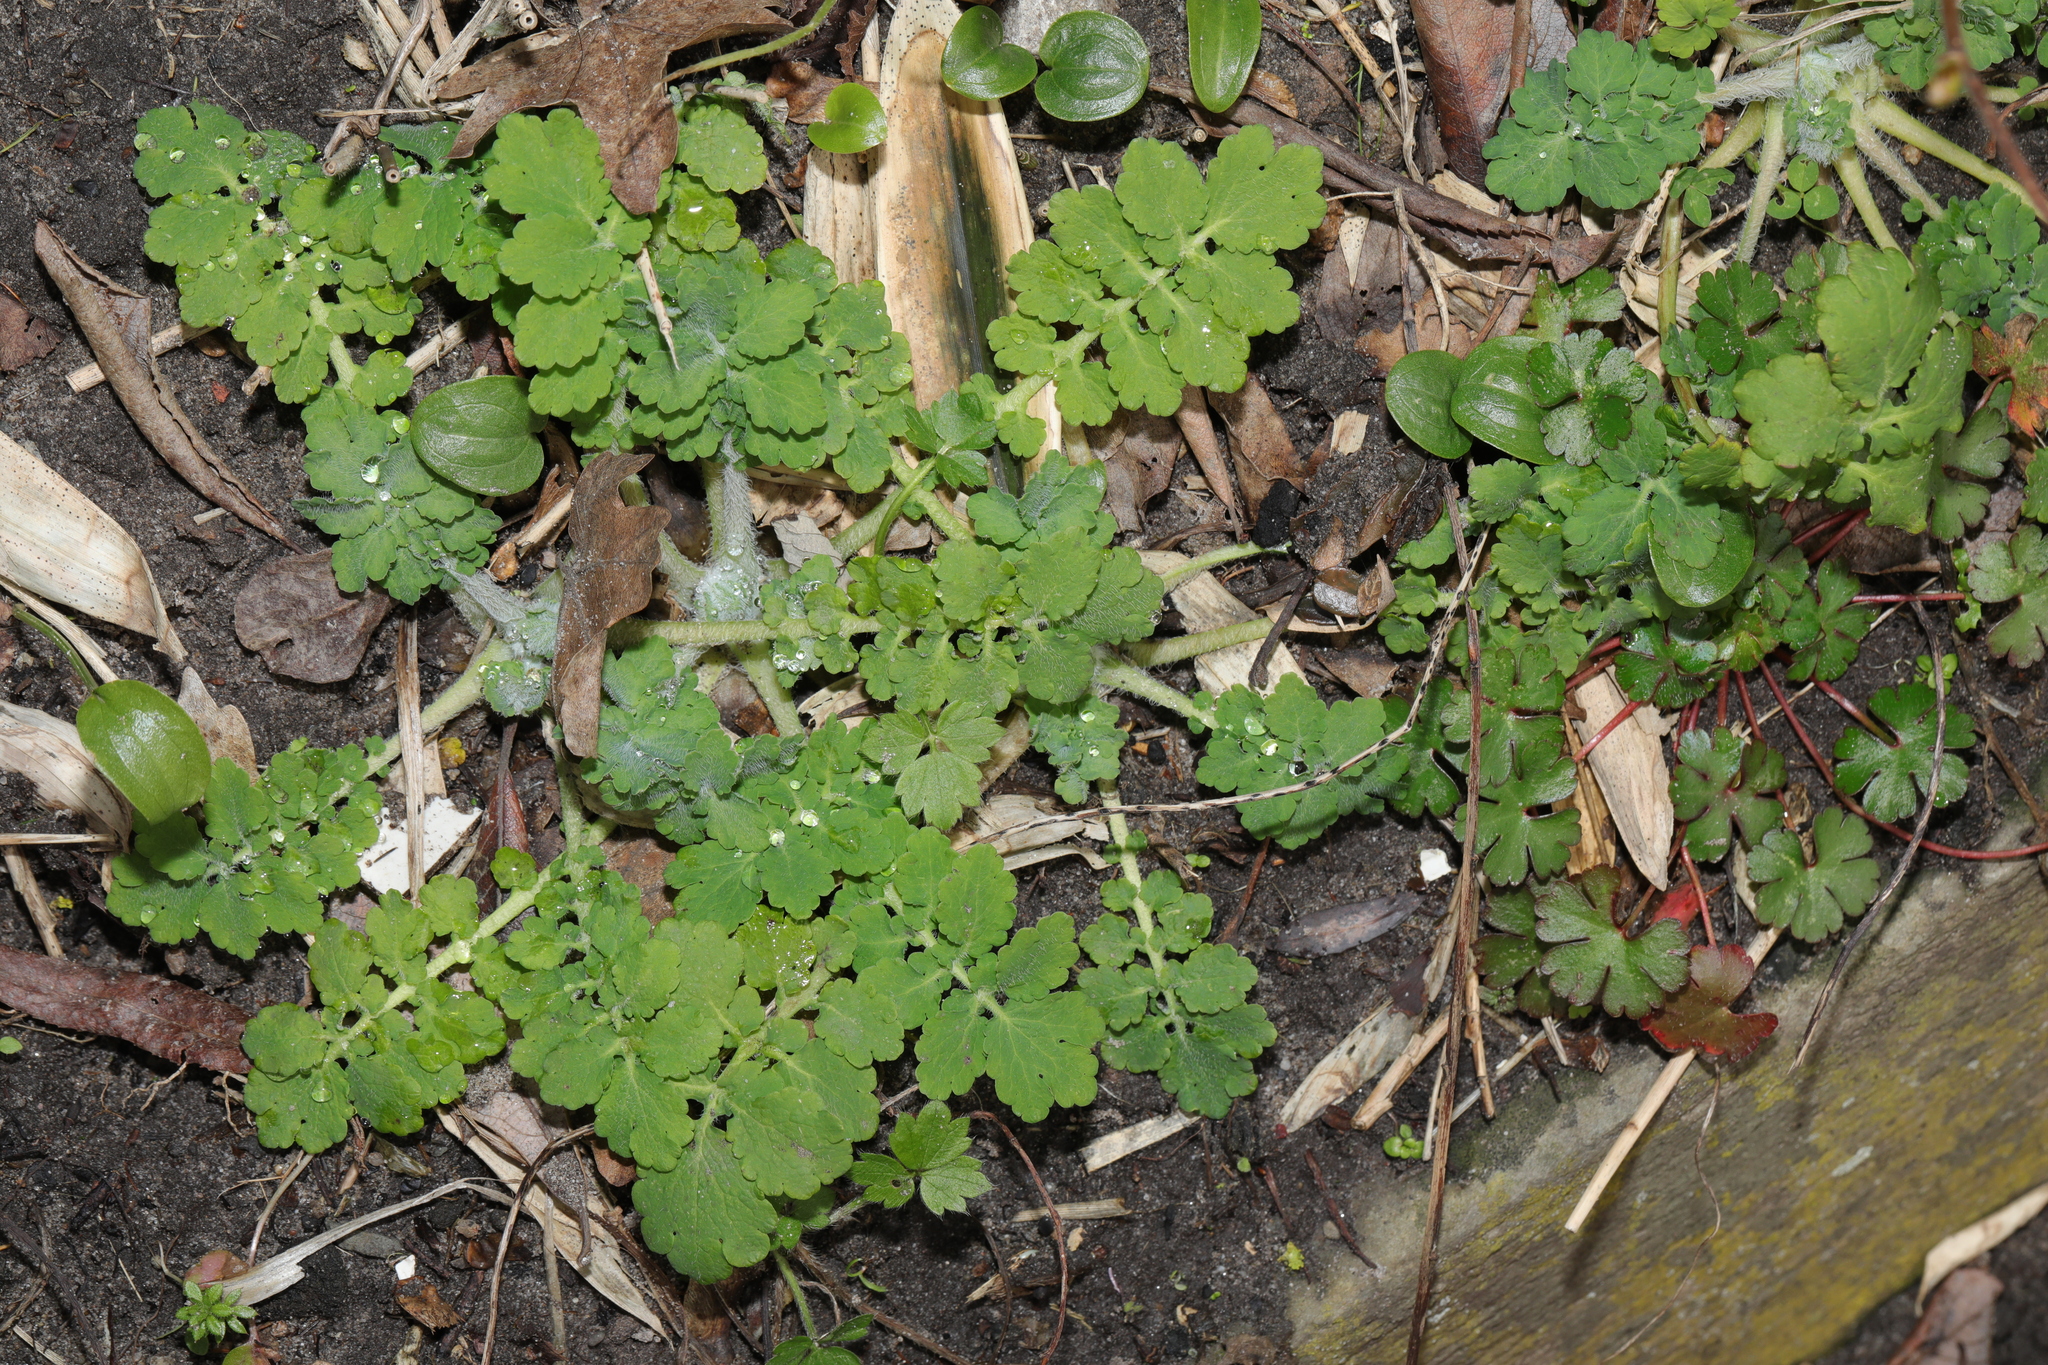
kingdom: Plantae
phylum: Tracheophyta
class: Magnoliopsida
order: Ranunculales
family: Papaveraceae
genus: Chelidonium
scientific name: Chelidonium majus
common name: Greater celandine
